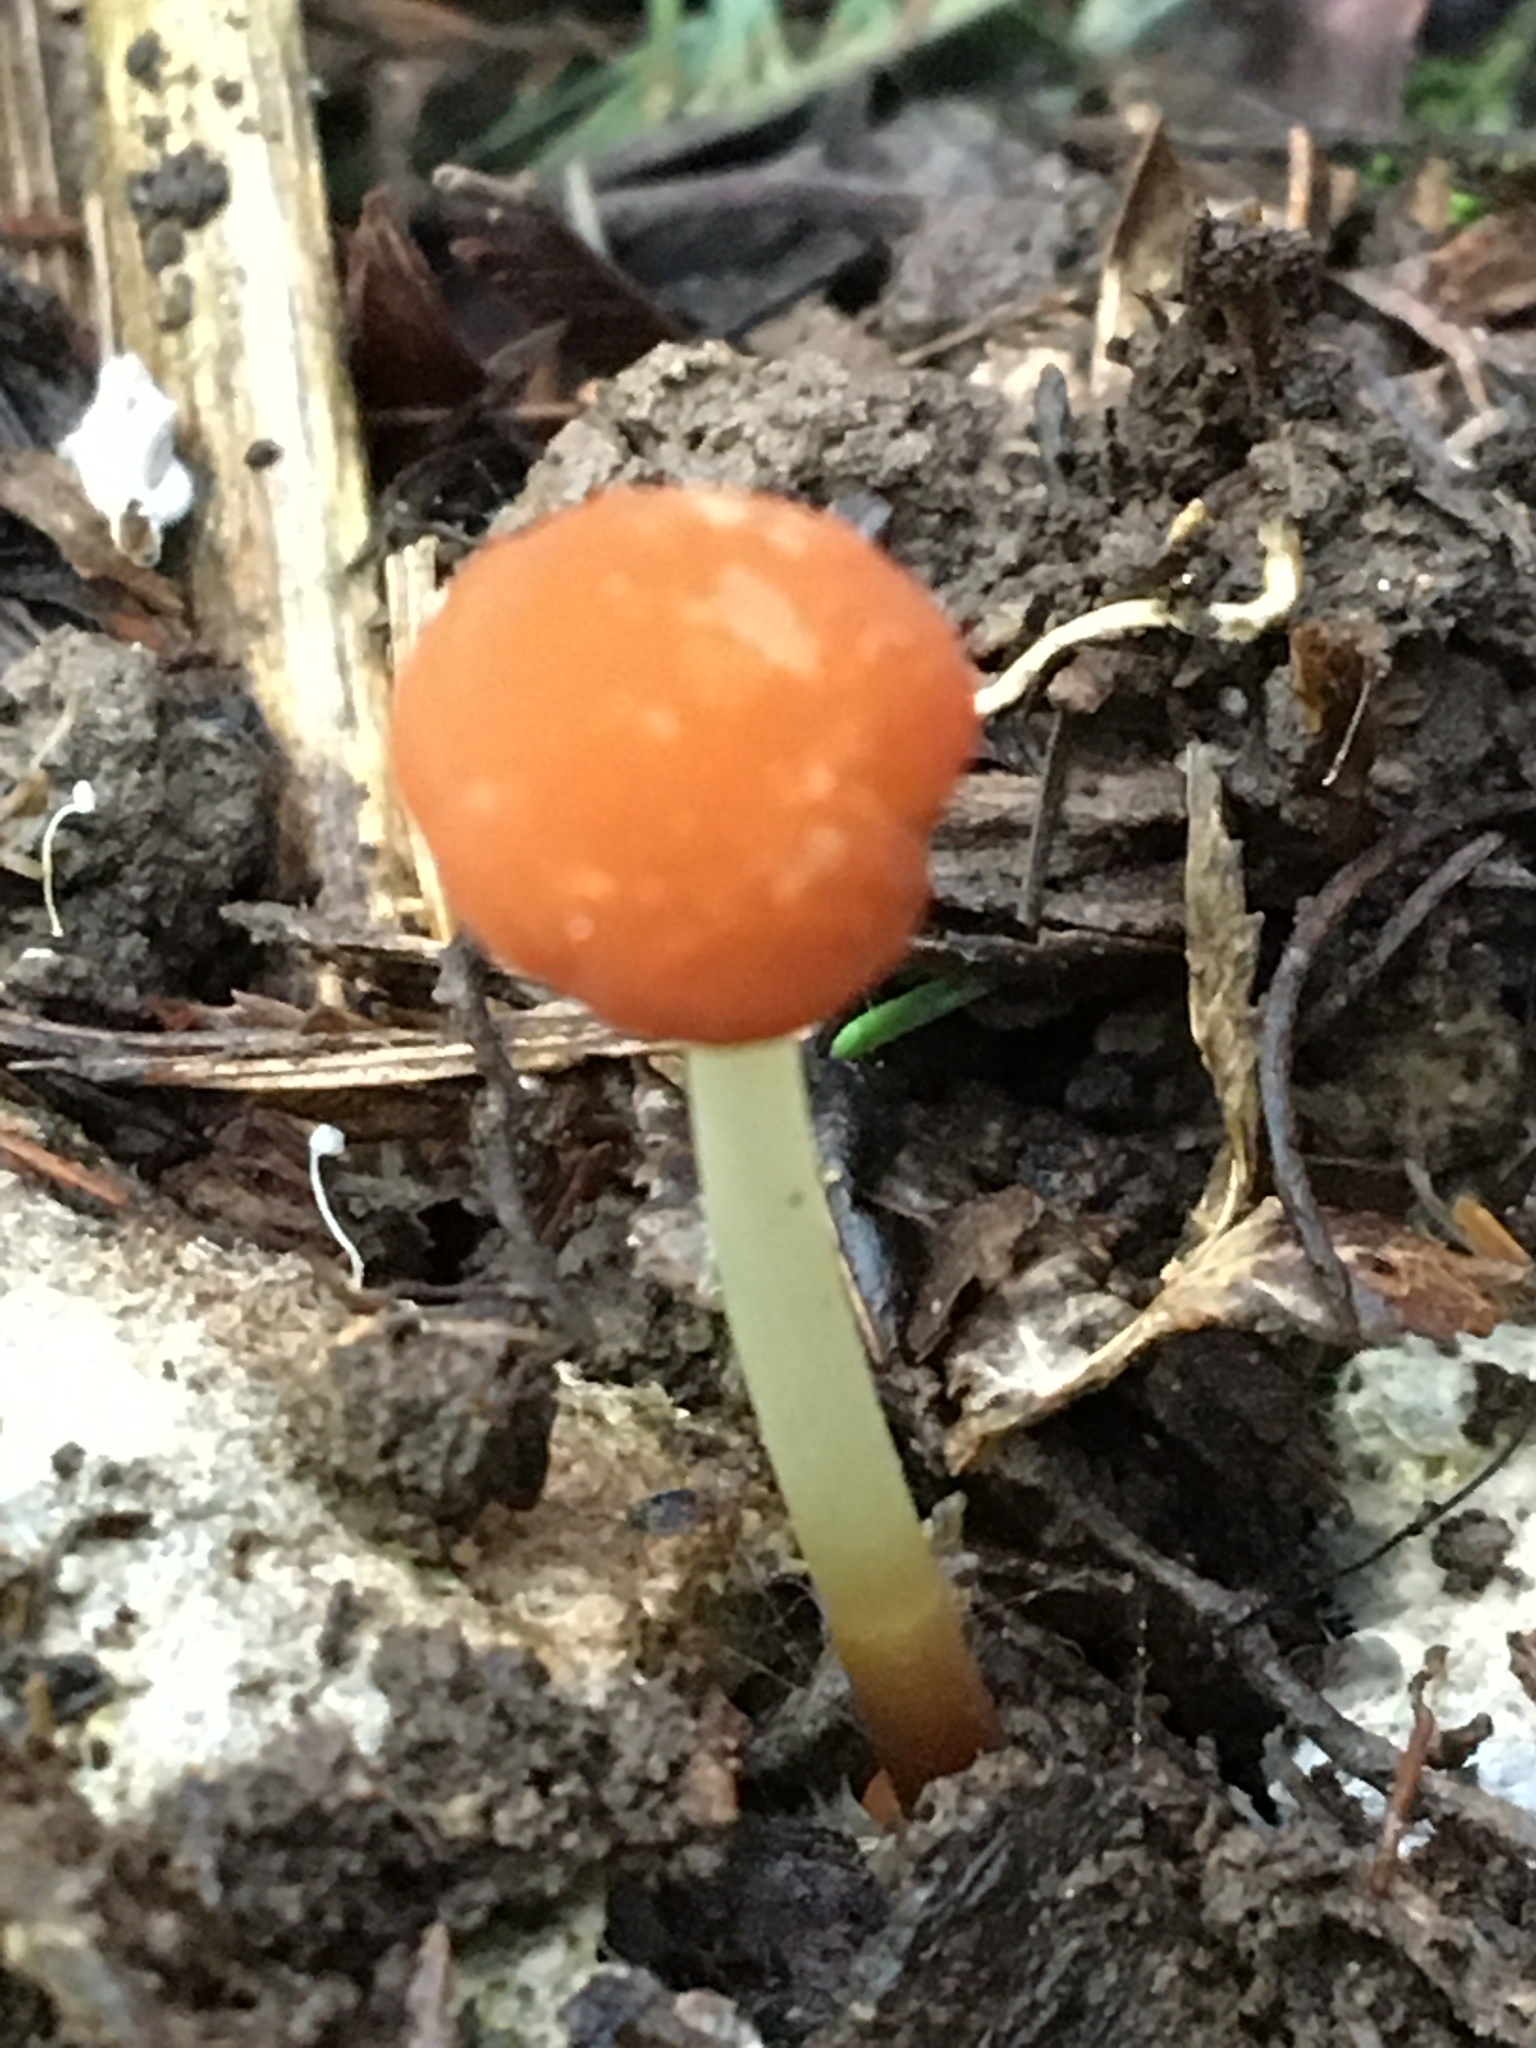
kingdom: Fungi
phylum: Basidiomycota
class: Agaricomycetes
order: Agaricales
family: Marasmiaceae
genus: Marasmius
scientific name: Marasmius elegans
